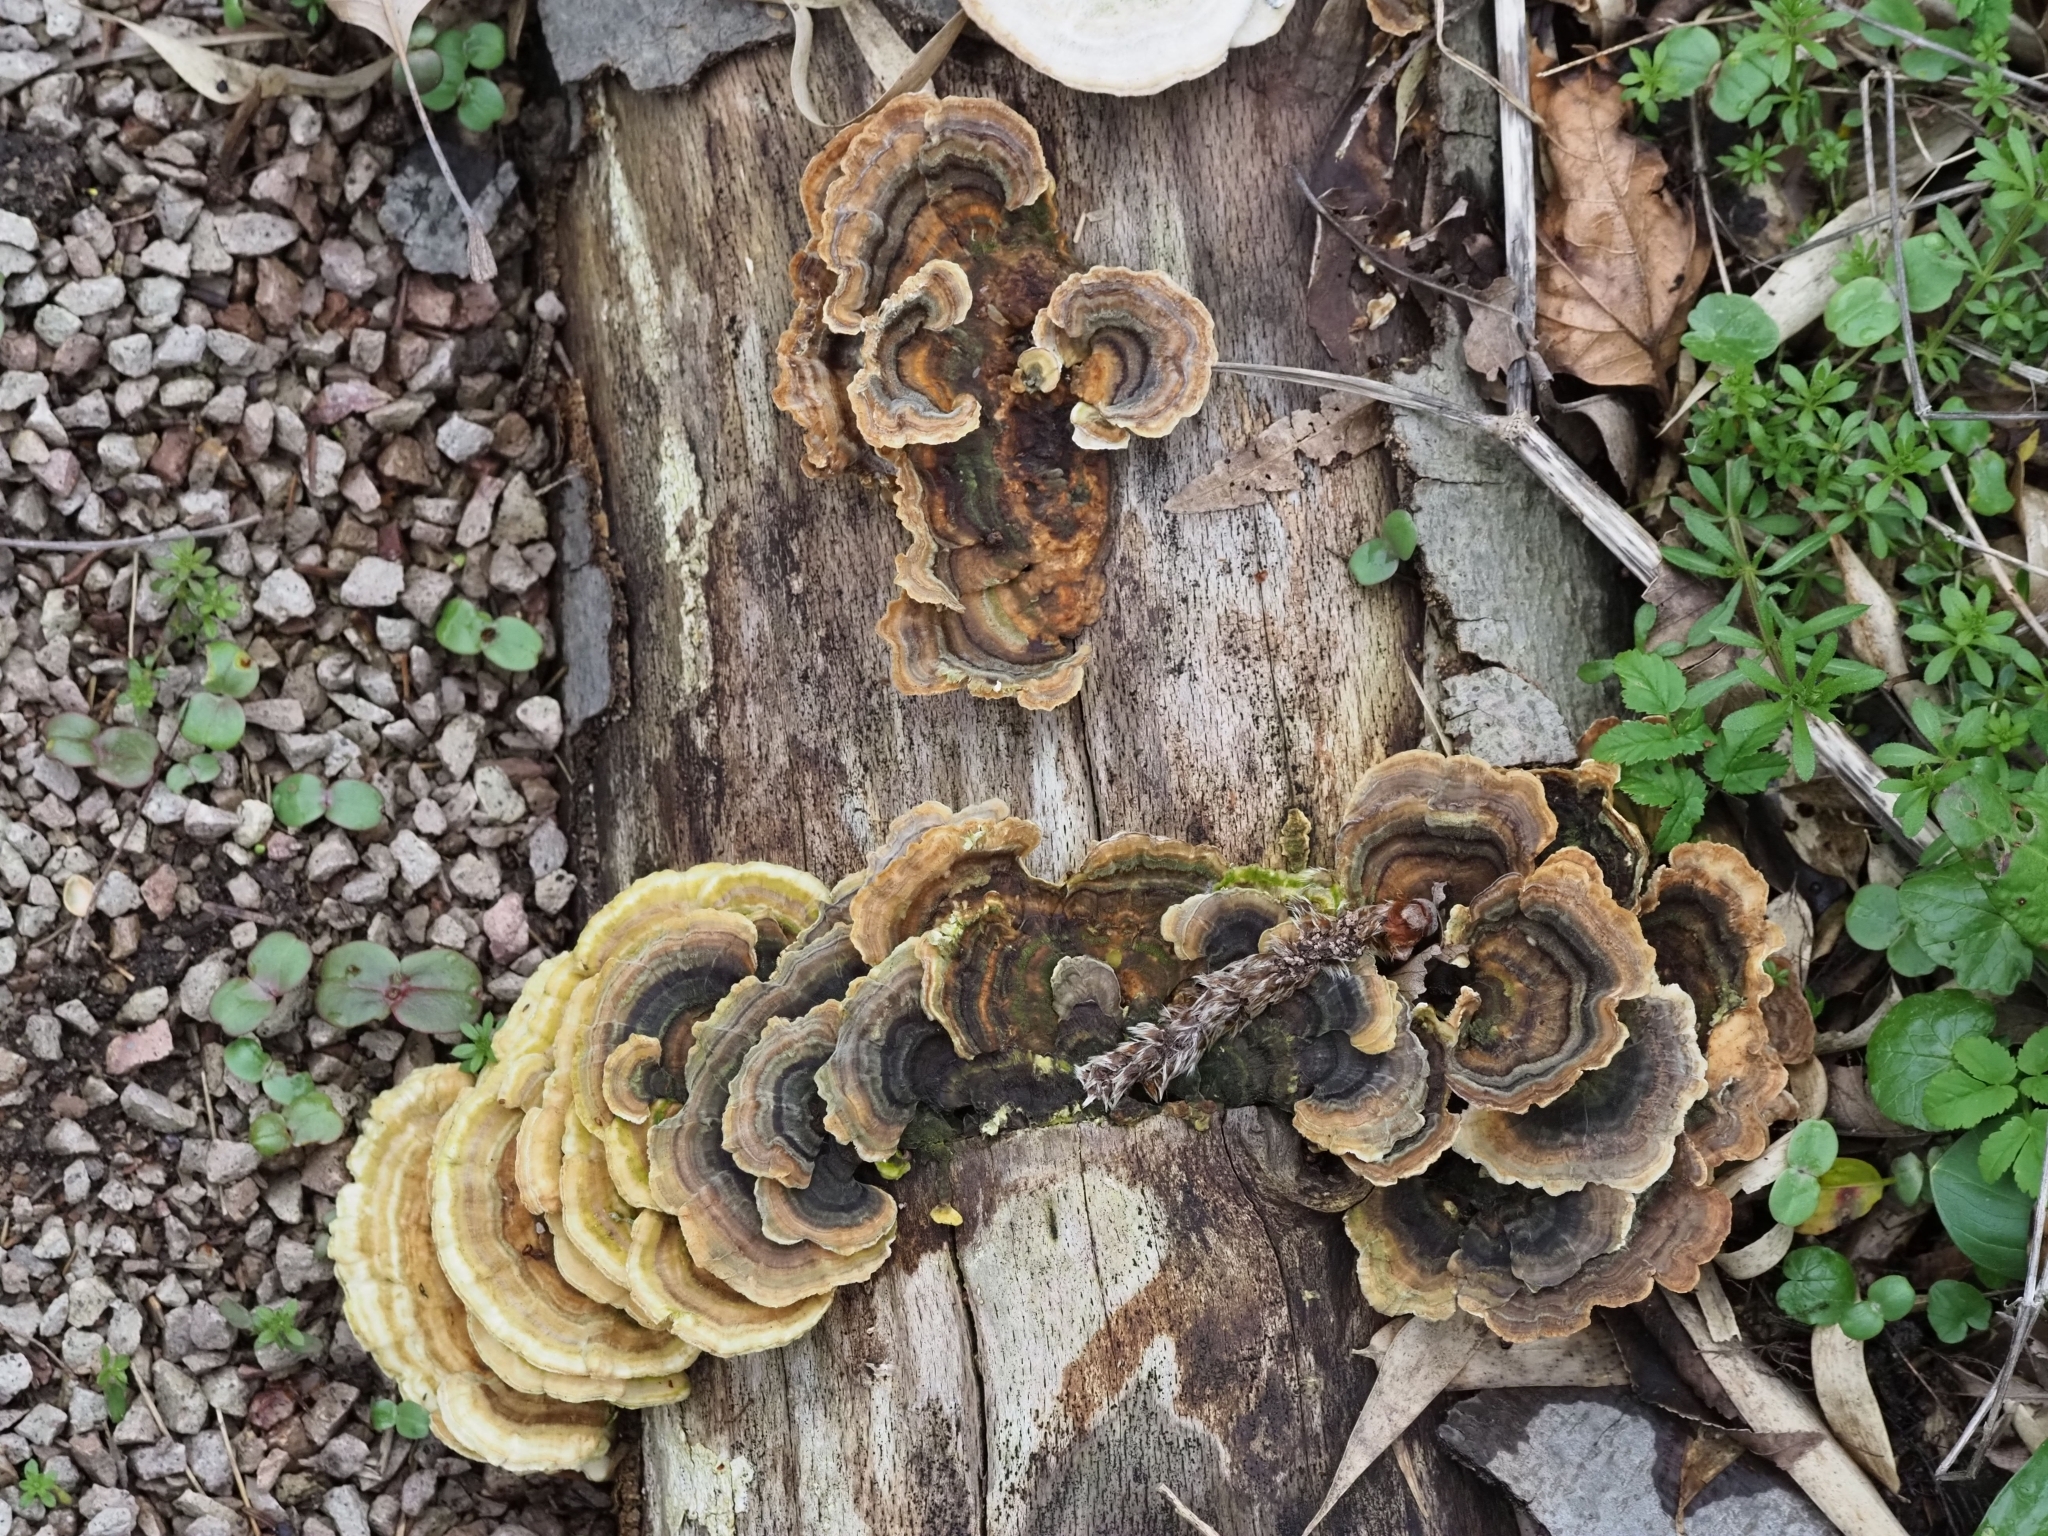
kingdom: Fungi
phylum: Basidiomycota
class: Agaricomycetes
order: Polyporales
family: Polyporaceae
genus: Trametes
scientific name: Trametes versicolor
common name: Turkeytail
